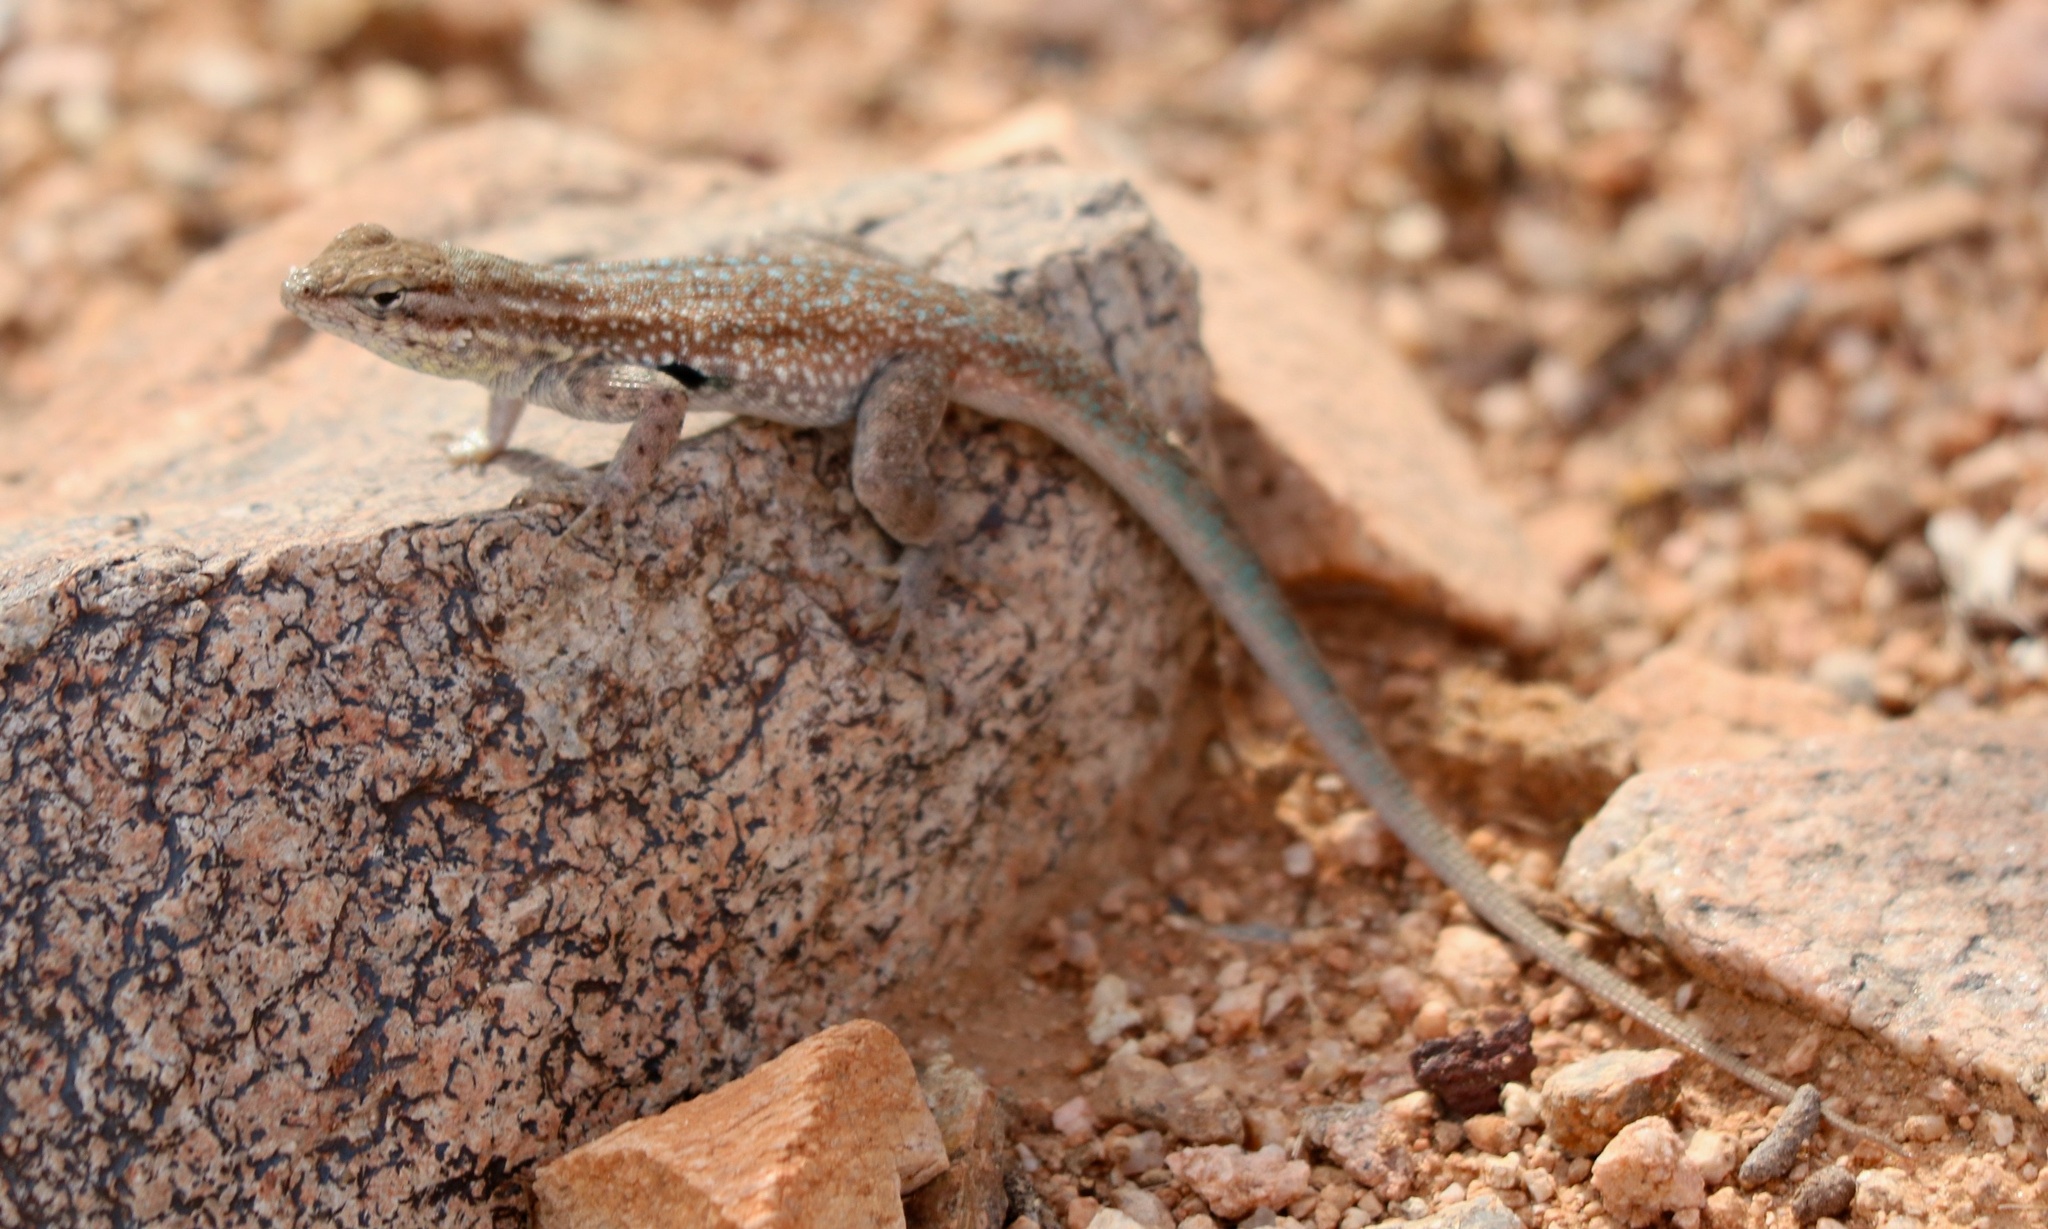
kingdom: Animalia
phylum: Chordata
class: Squamata
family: Phrynosomatidae
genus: Uta
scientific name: Uta stansburiana
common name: Side-blotched lizard
